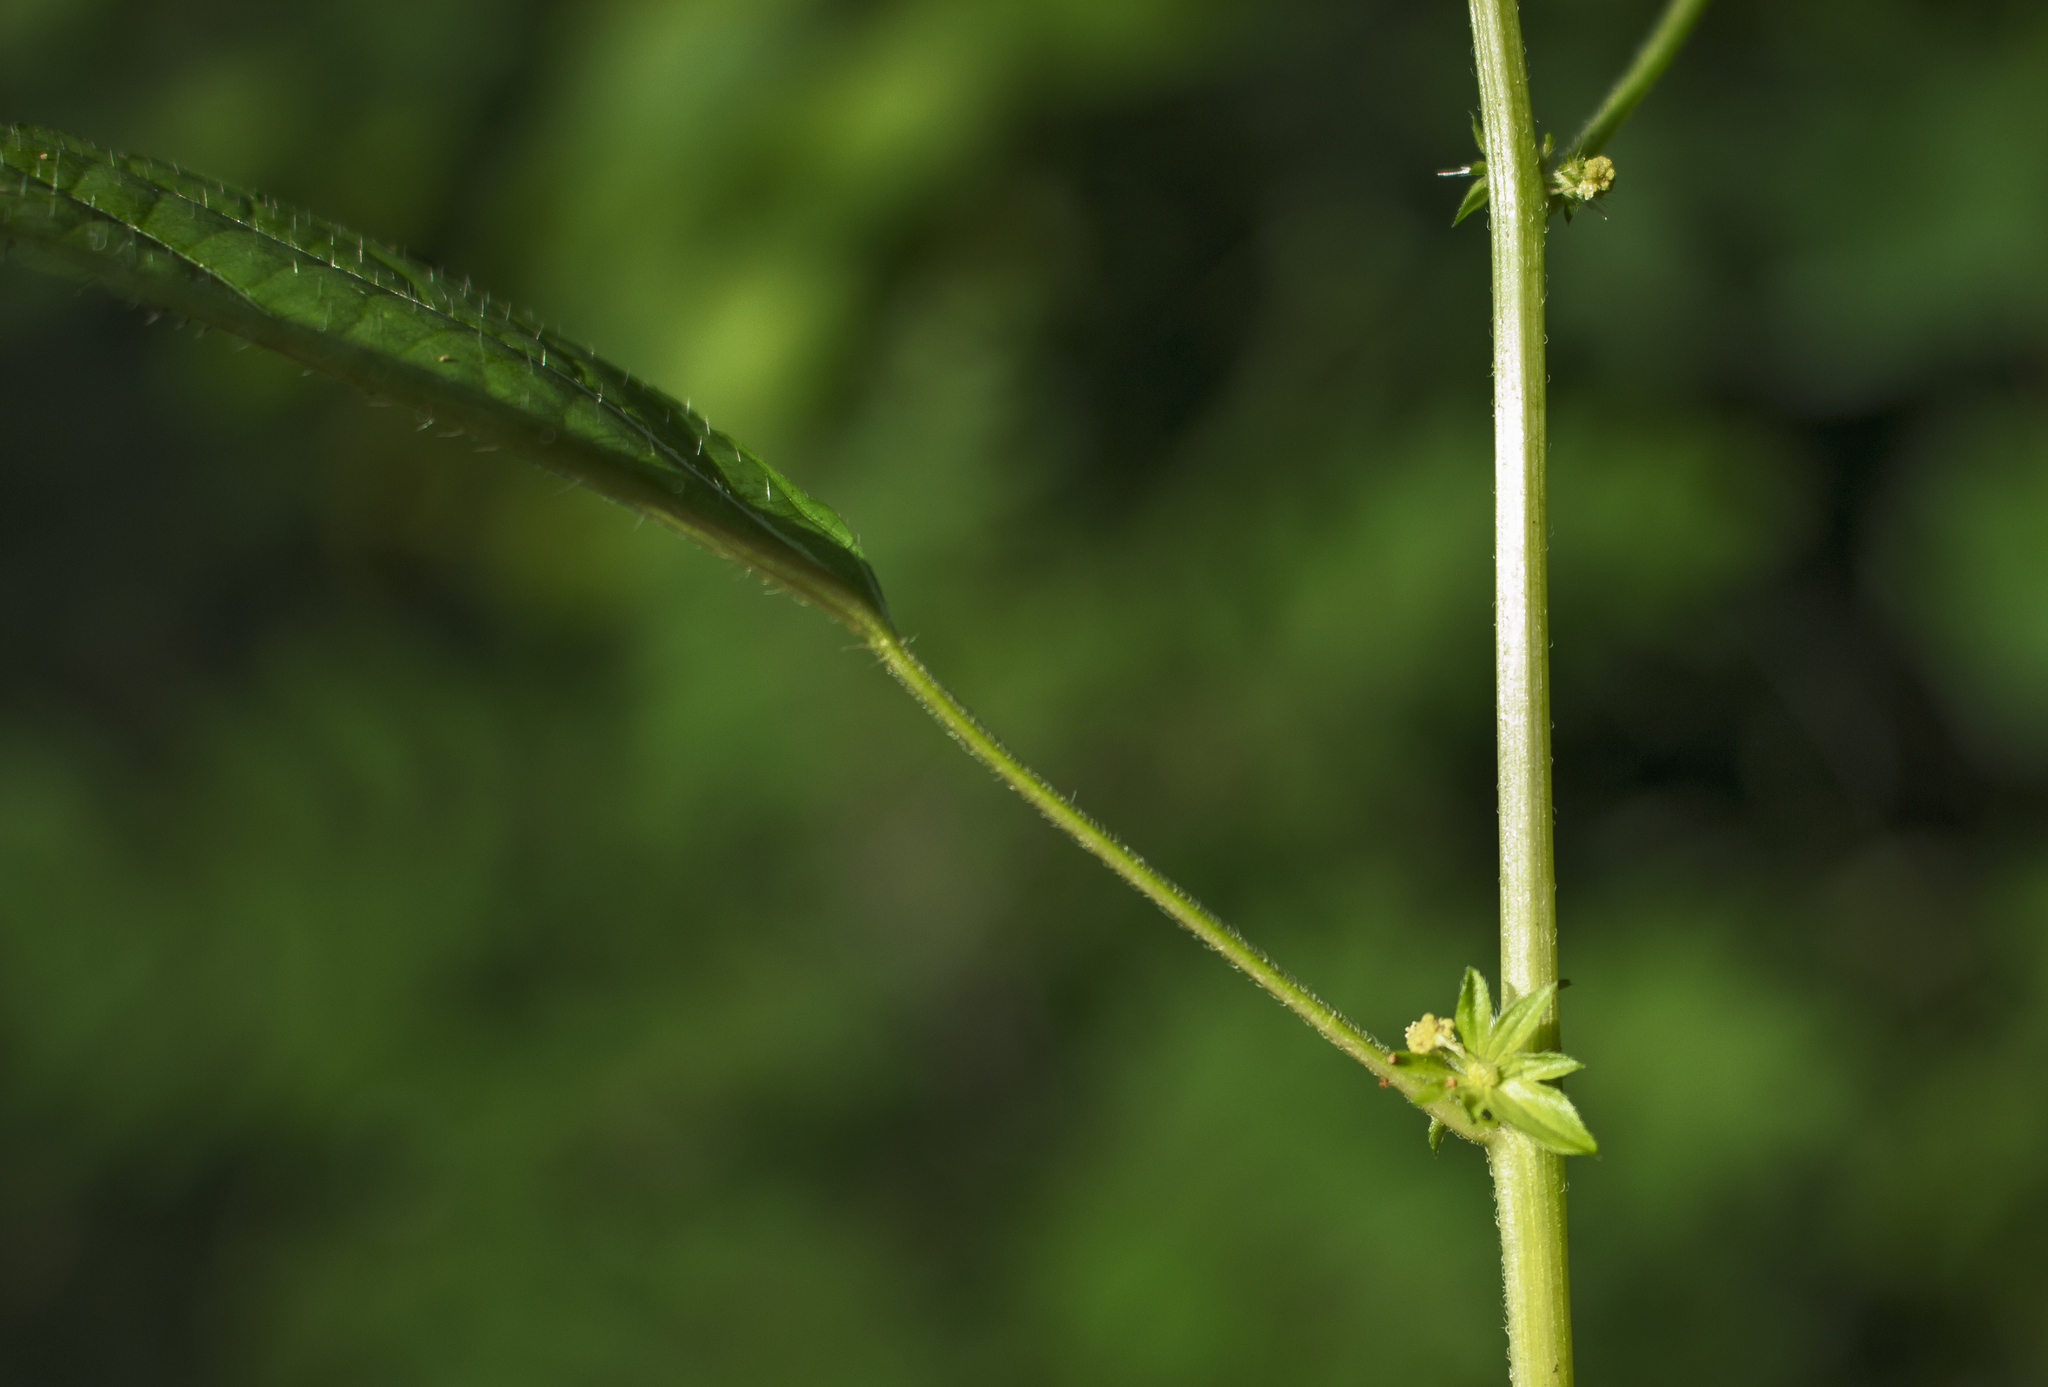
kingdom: Plantae
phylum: Tracheophyta
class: Magnoliopsida
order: Malpighiales
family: Euphorbiaceae
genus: Acalypha
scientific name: Acalypha rhomboidea
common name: Rhombic copperleaf
